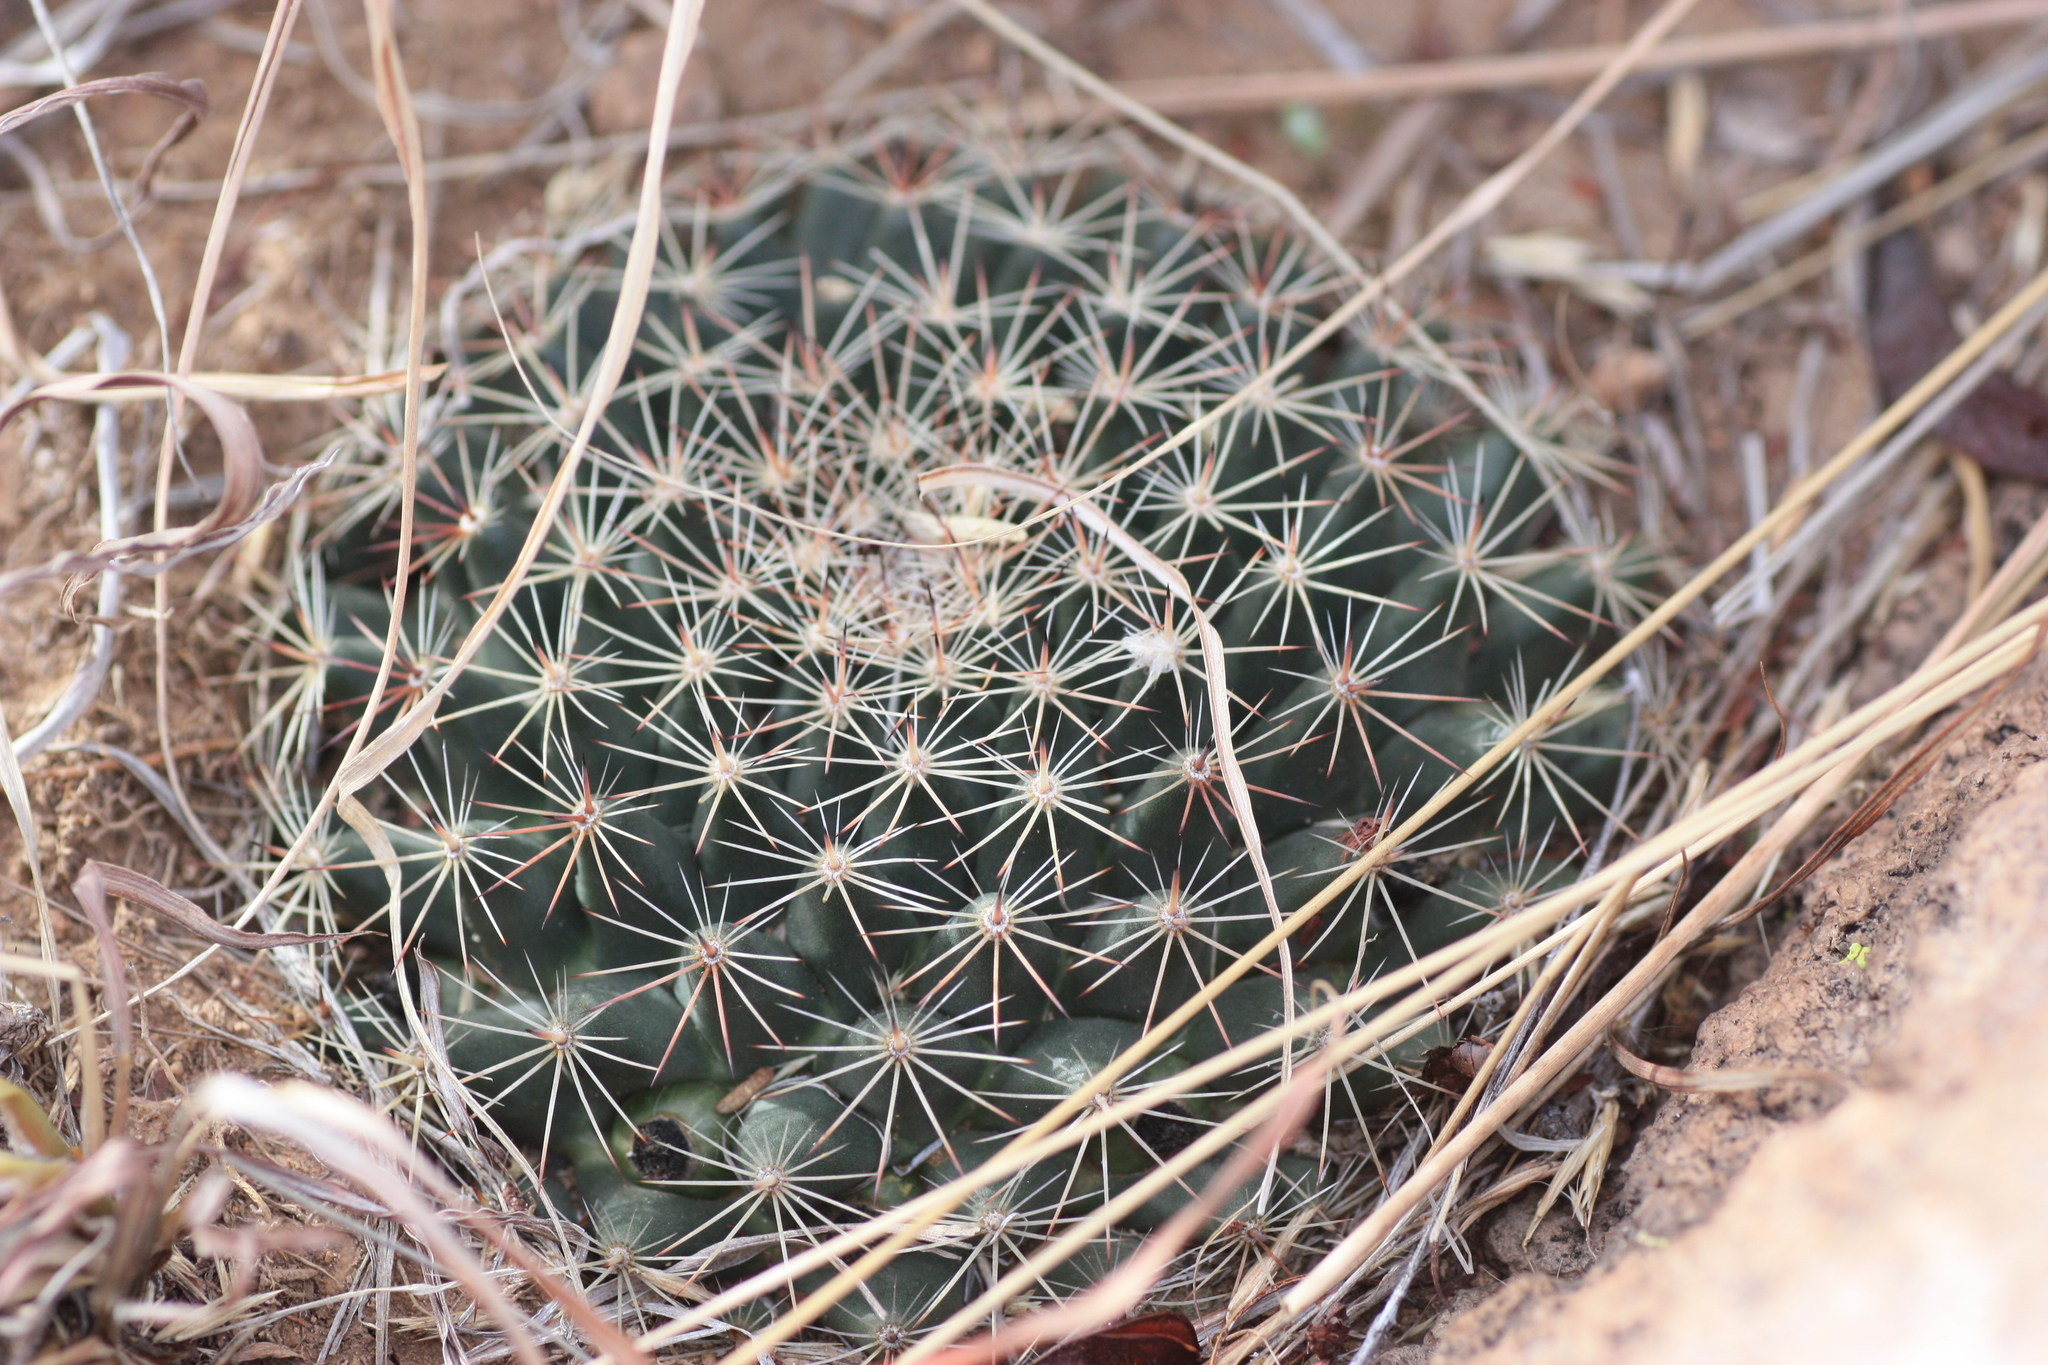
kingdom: Plantae
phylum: Tracheophyta
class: Magnoliopsida
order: Caryophyllales
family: Cactaceae
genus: Mammillaria
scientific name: Mammillaria heyderi
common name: Little nipple cactus
